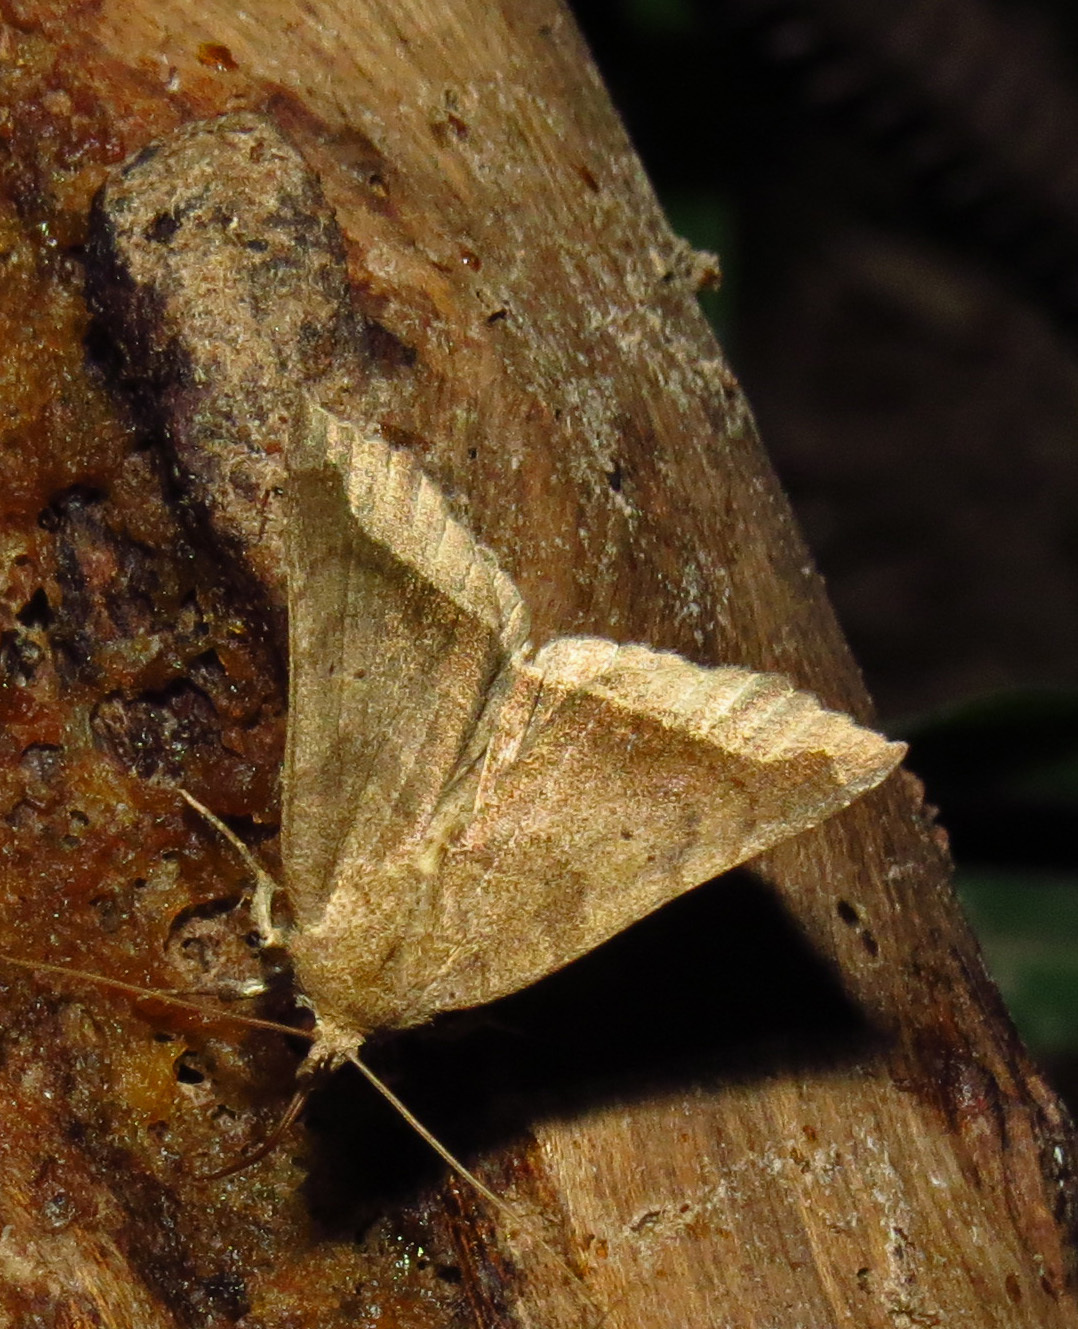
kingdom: Animalia
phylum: Arthropoda
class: Insecta
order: Lepidoptera
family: Erebidae
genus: Bendisodes
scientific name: Bendisodes aeolia
